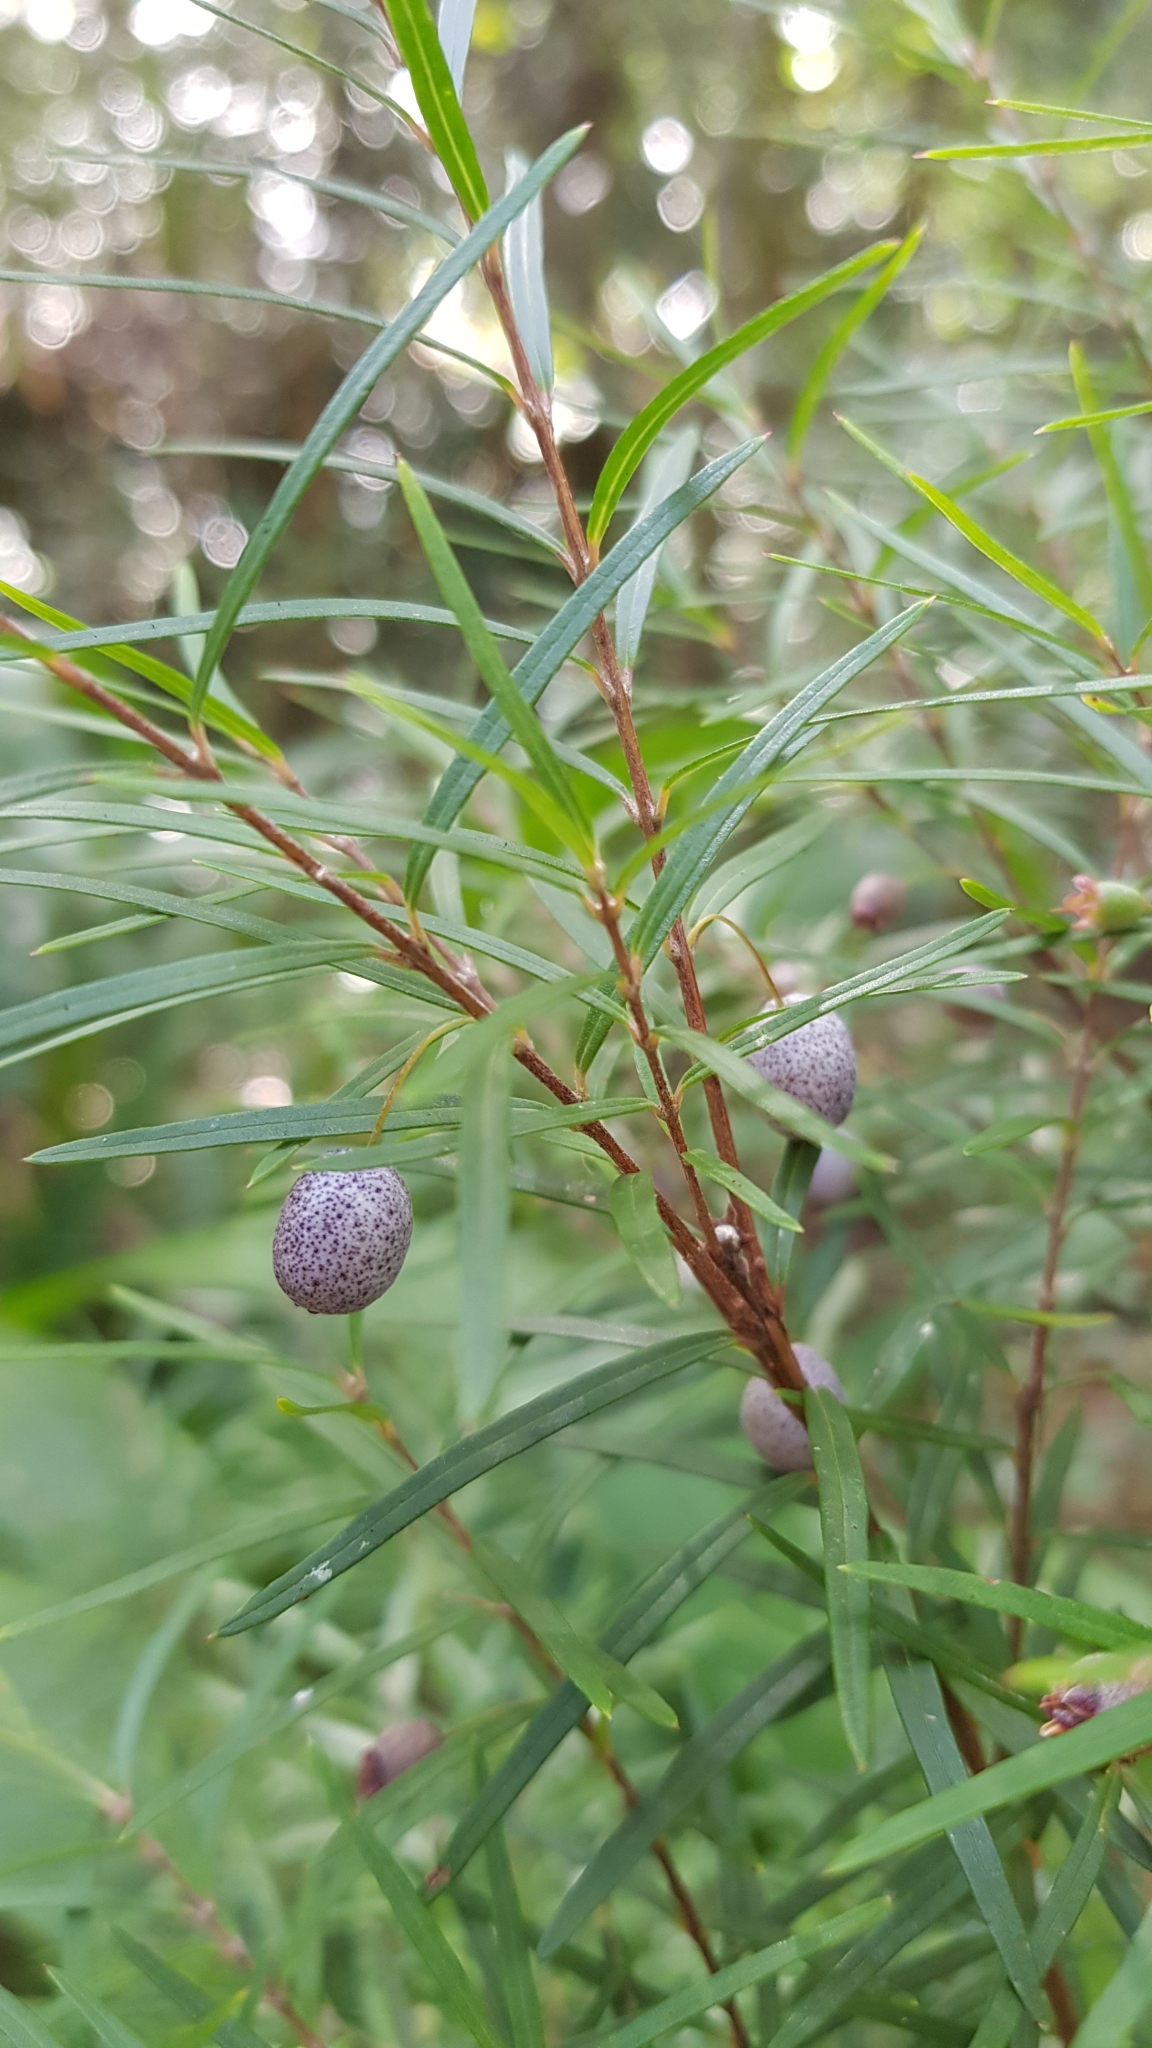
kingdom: Plantae
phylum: Tracheophyta
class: Magnoliopsida
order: Myrtales
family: Myrtaceae
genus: Austromyrtus
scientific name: Austromyrtus tenuifolia
